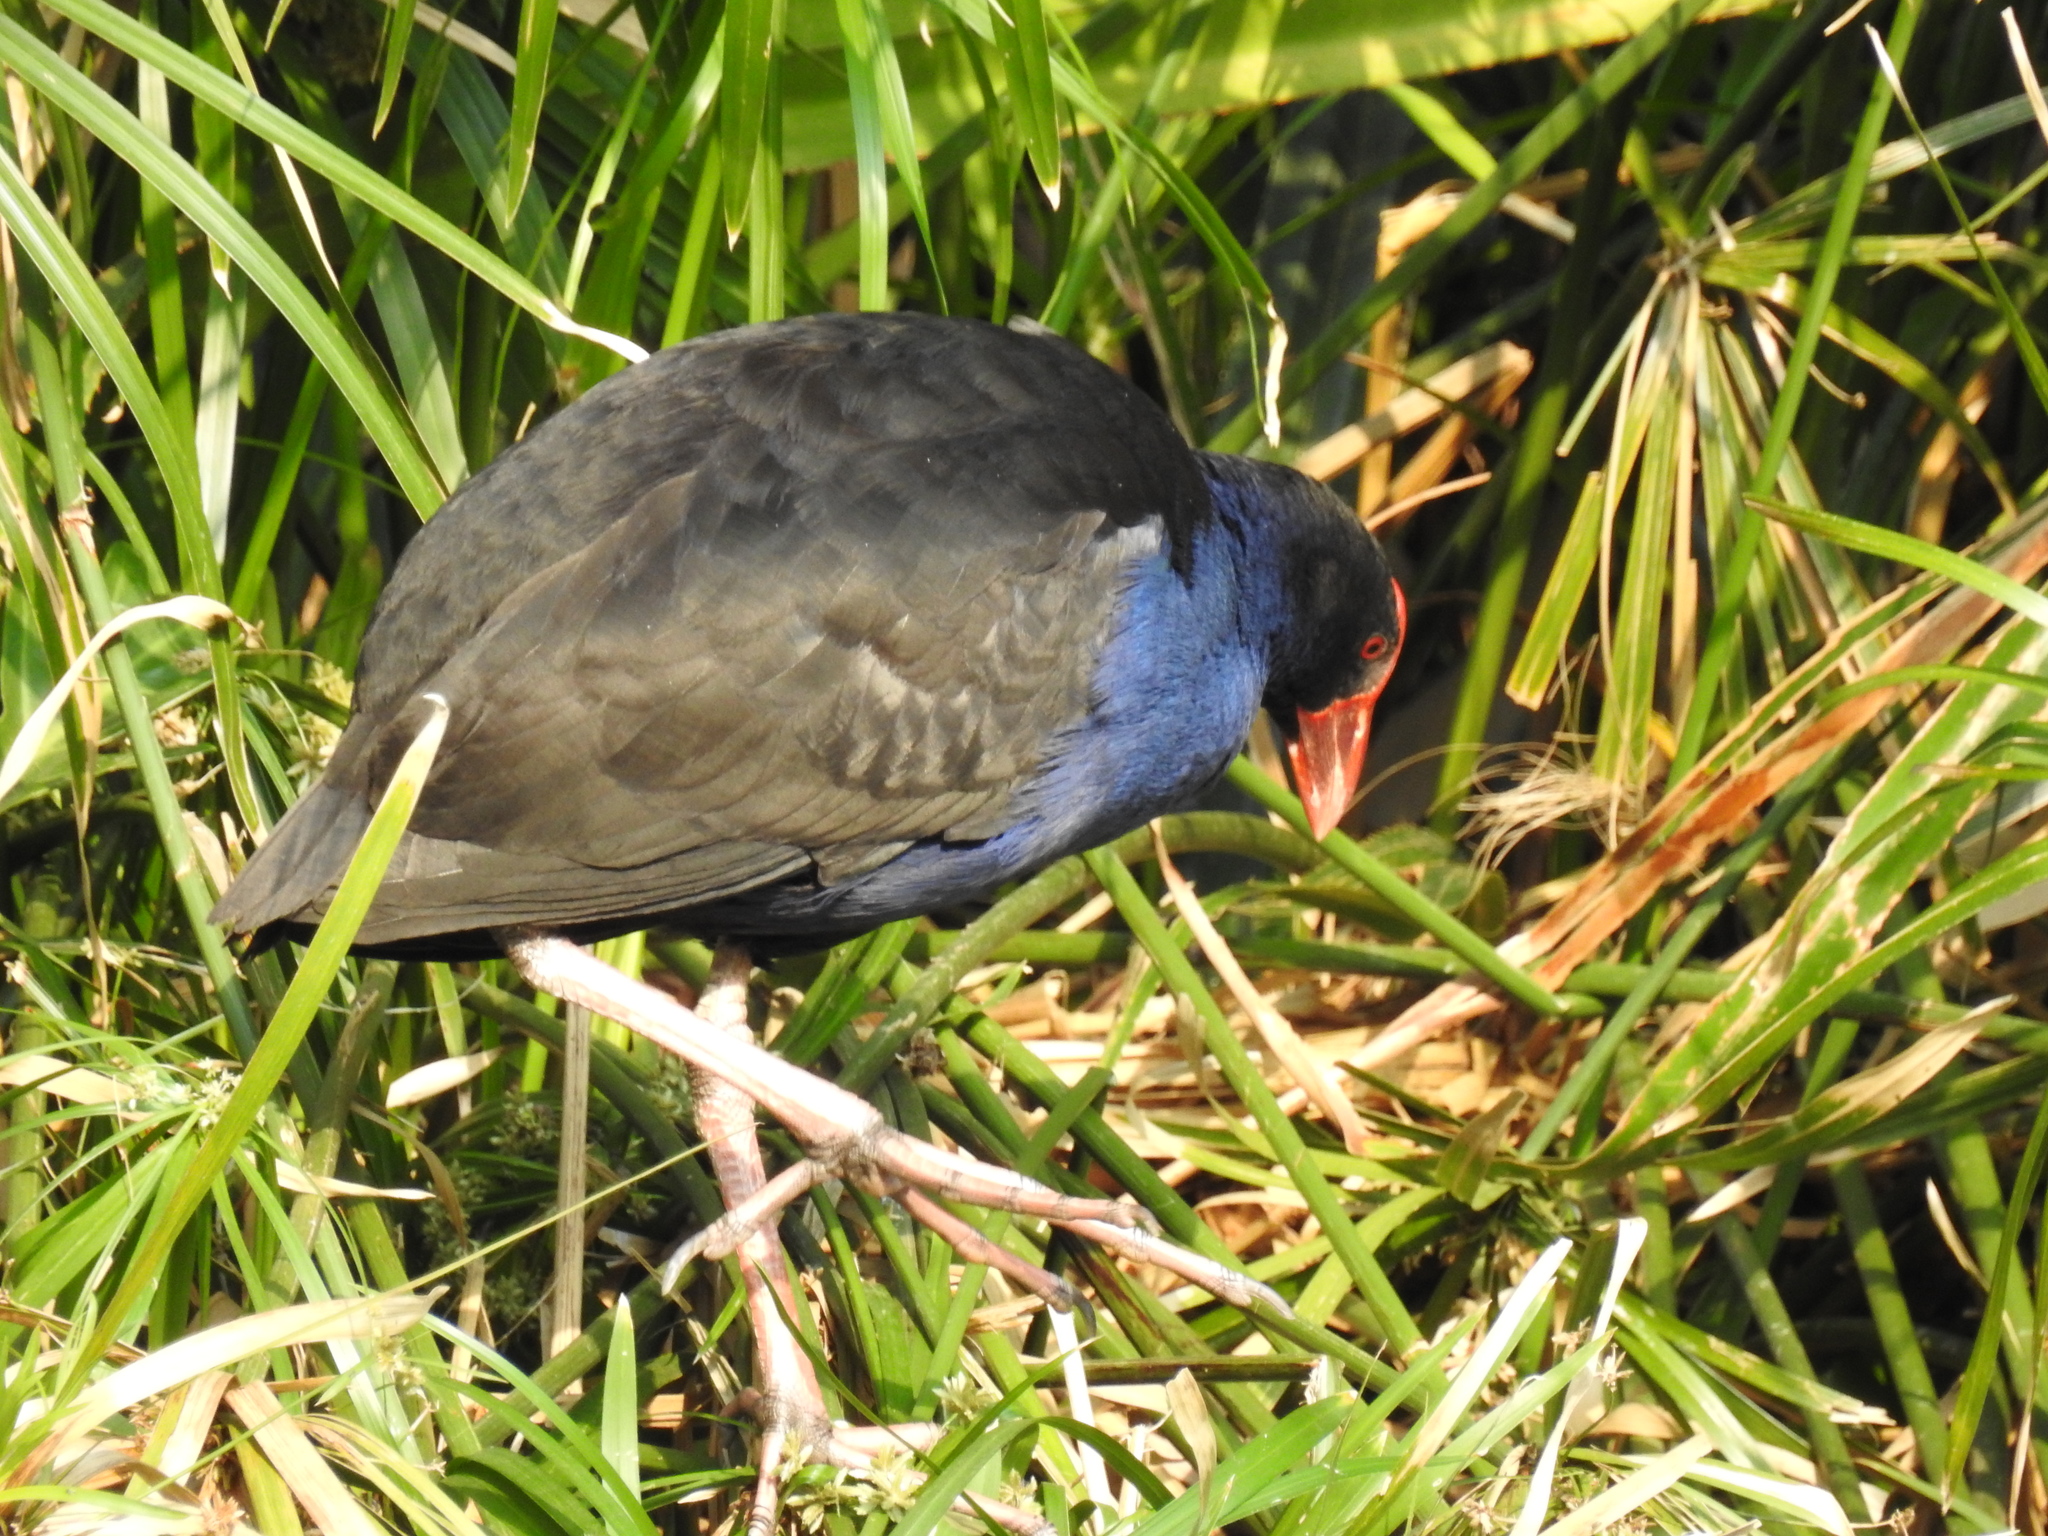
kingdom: Animalia
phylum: Chordata
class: Aves
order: Gruiformes
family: Rallidae
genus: Porphyrio
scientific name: Porphyrio melanotus
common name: Australasian swamphen
